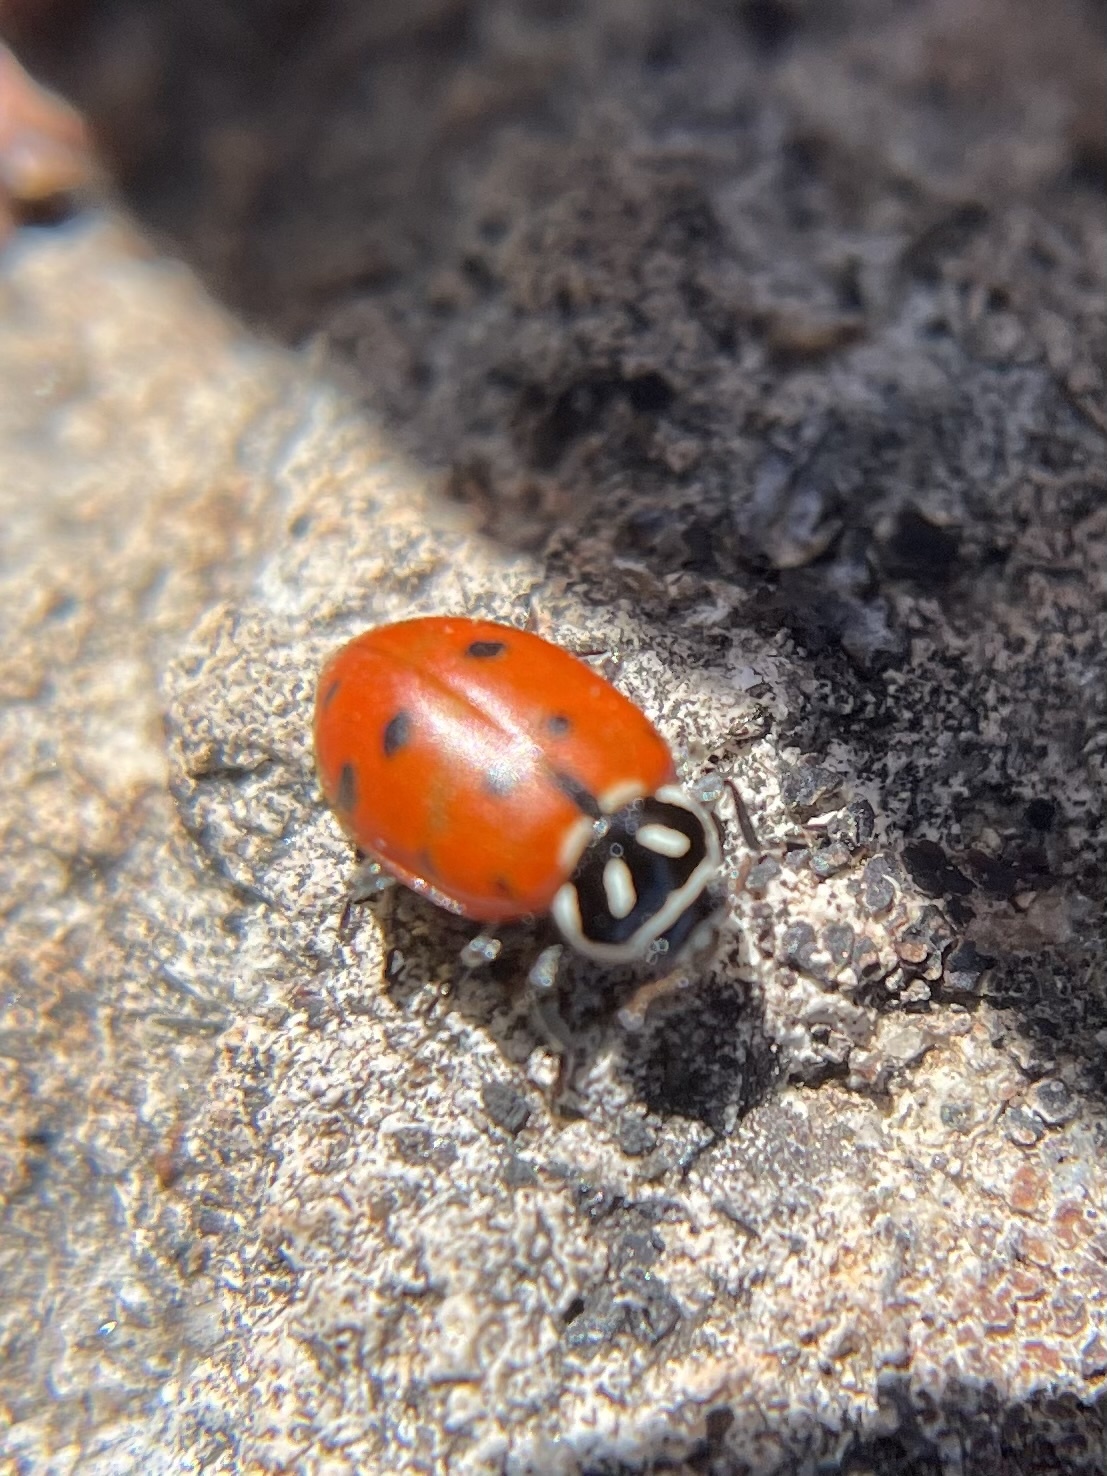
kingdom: Animalia
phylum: Arthropoda
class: Insecta
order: Coleoptera
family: Coccinellidae
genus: Hippodamia
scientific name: Hippodamia convergens
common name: Convergent lady beetle
